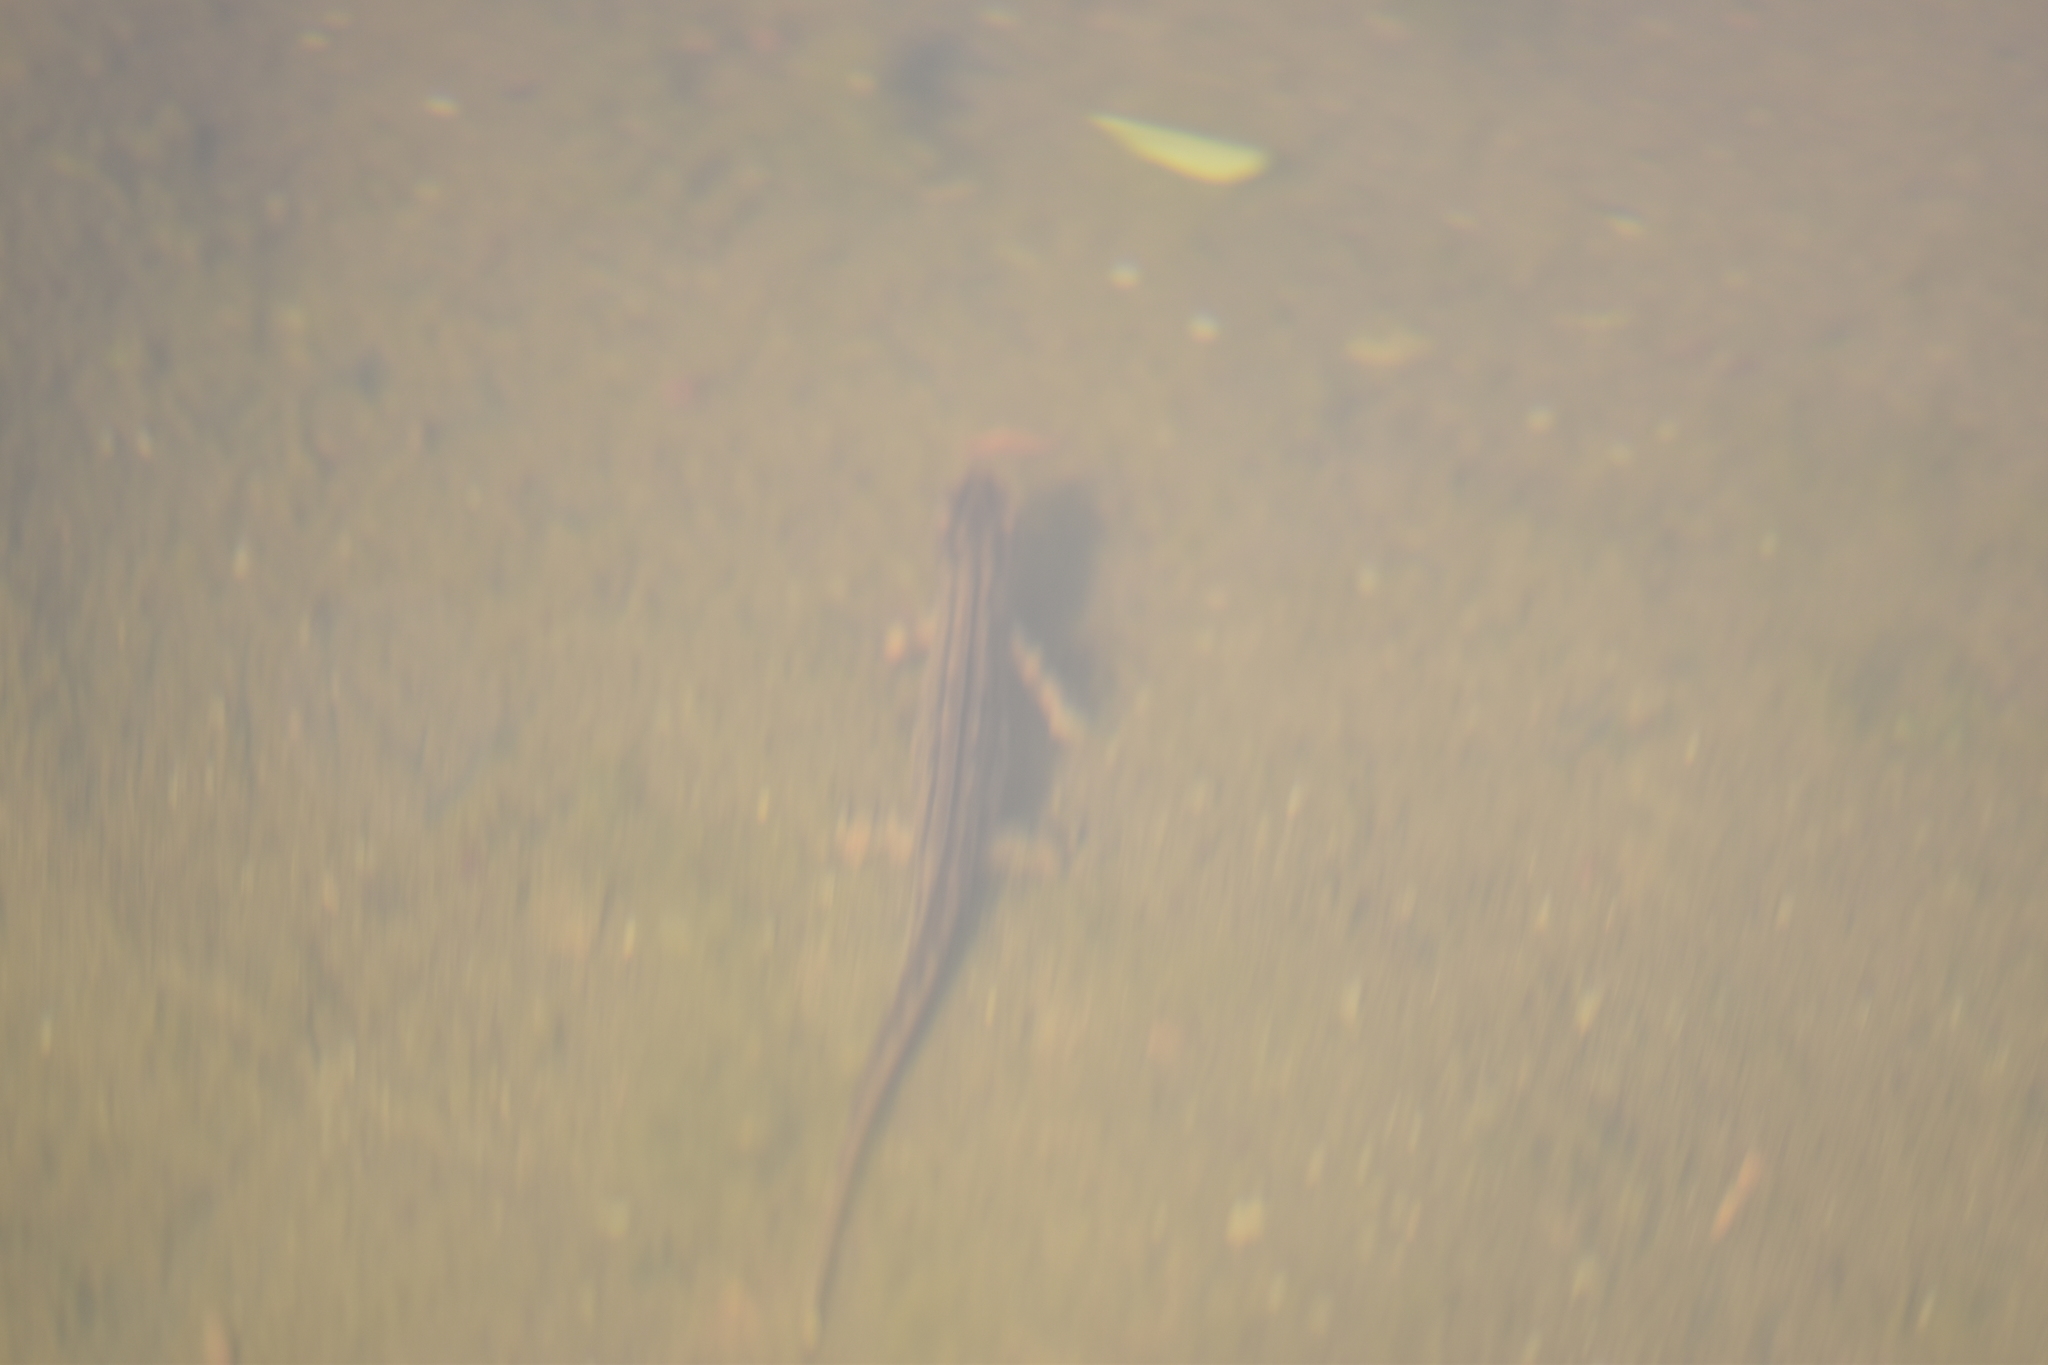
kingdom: Animalia
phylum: Chordata
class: Amphibia
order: Caudata
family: Salamandridae
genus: Lissotriton
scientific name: Lissotriton vulgaris
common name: Smooth newt
